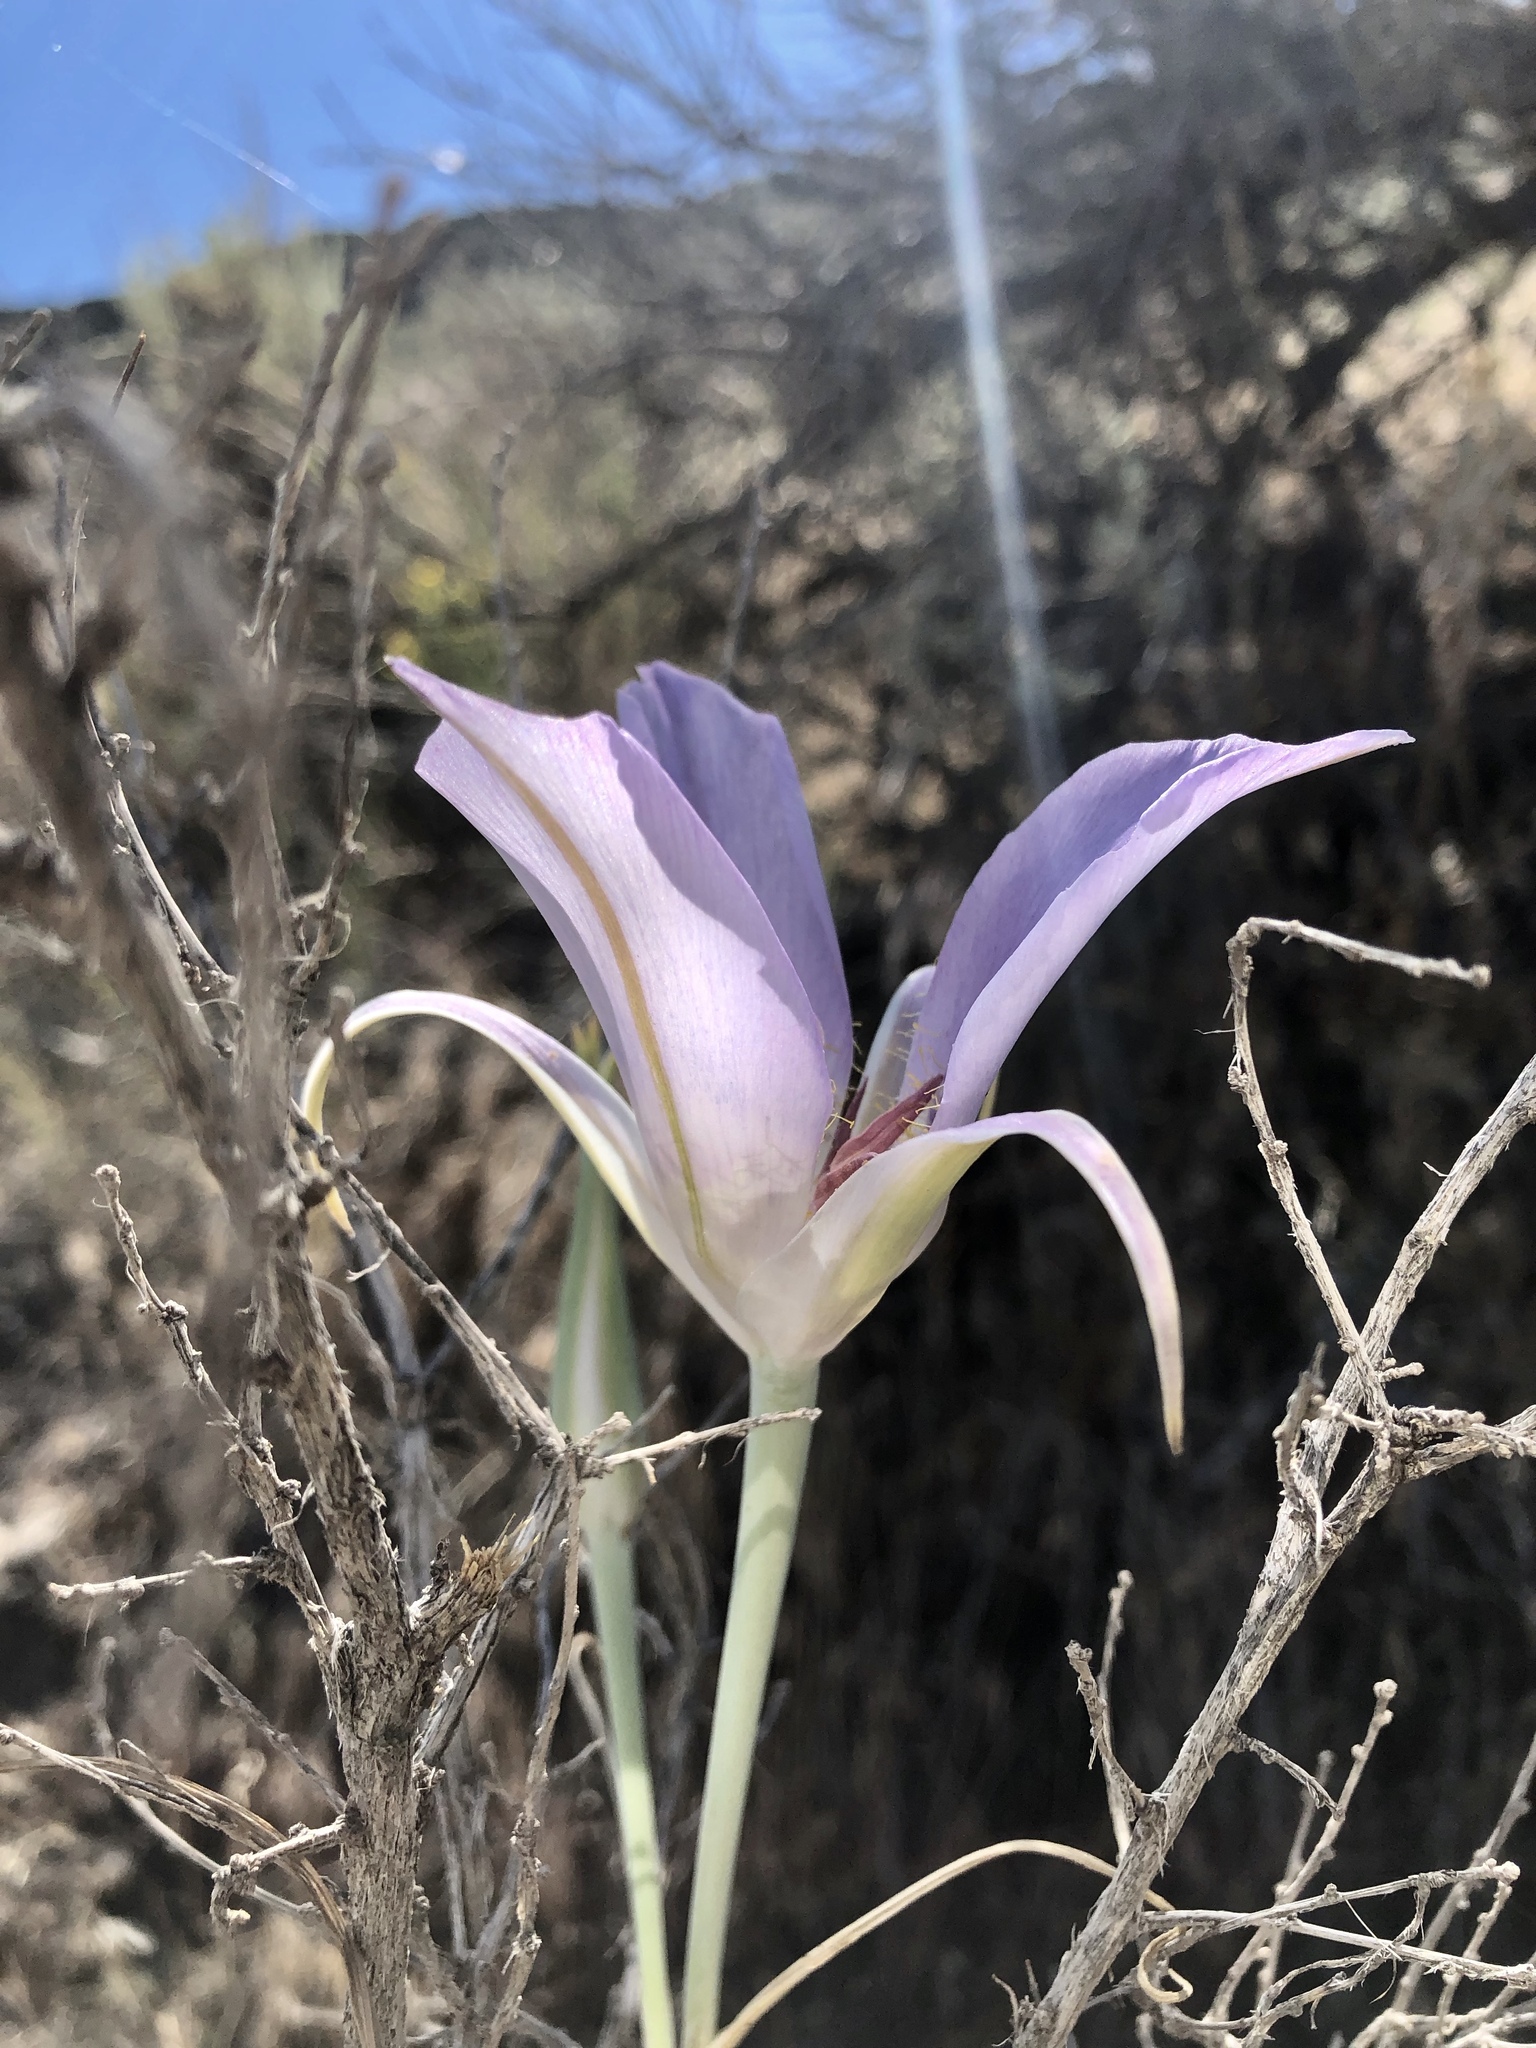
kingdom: Plantae
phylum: Tracheophyta
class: Liliopsida
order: Liliales
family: Liliaceae
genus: Calochortus
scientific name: Calochortus macrocarpus
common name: Green-band mariposa lily
